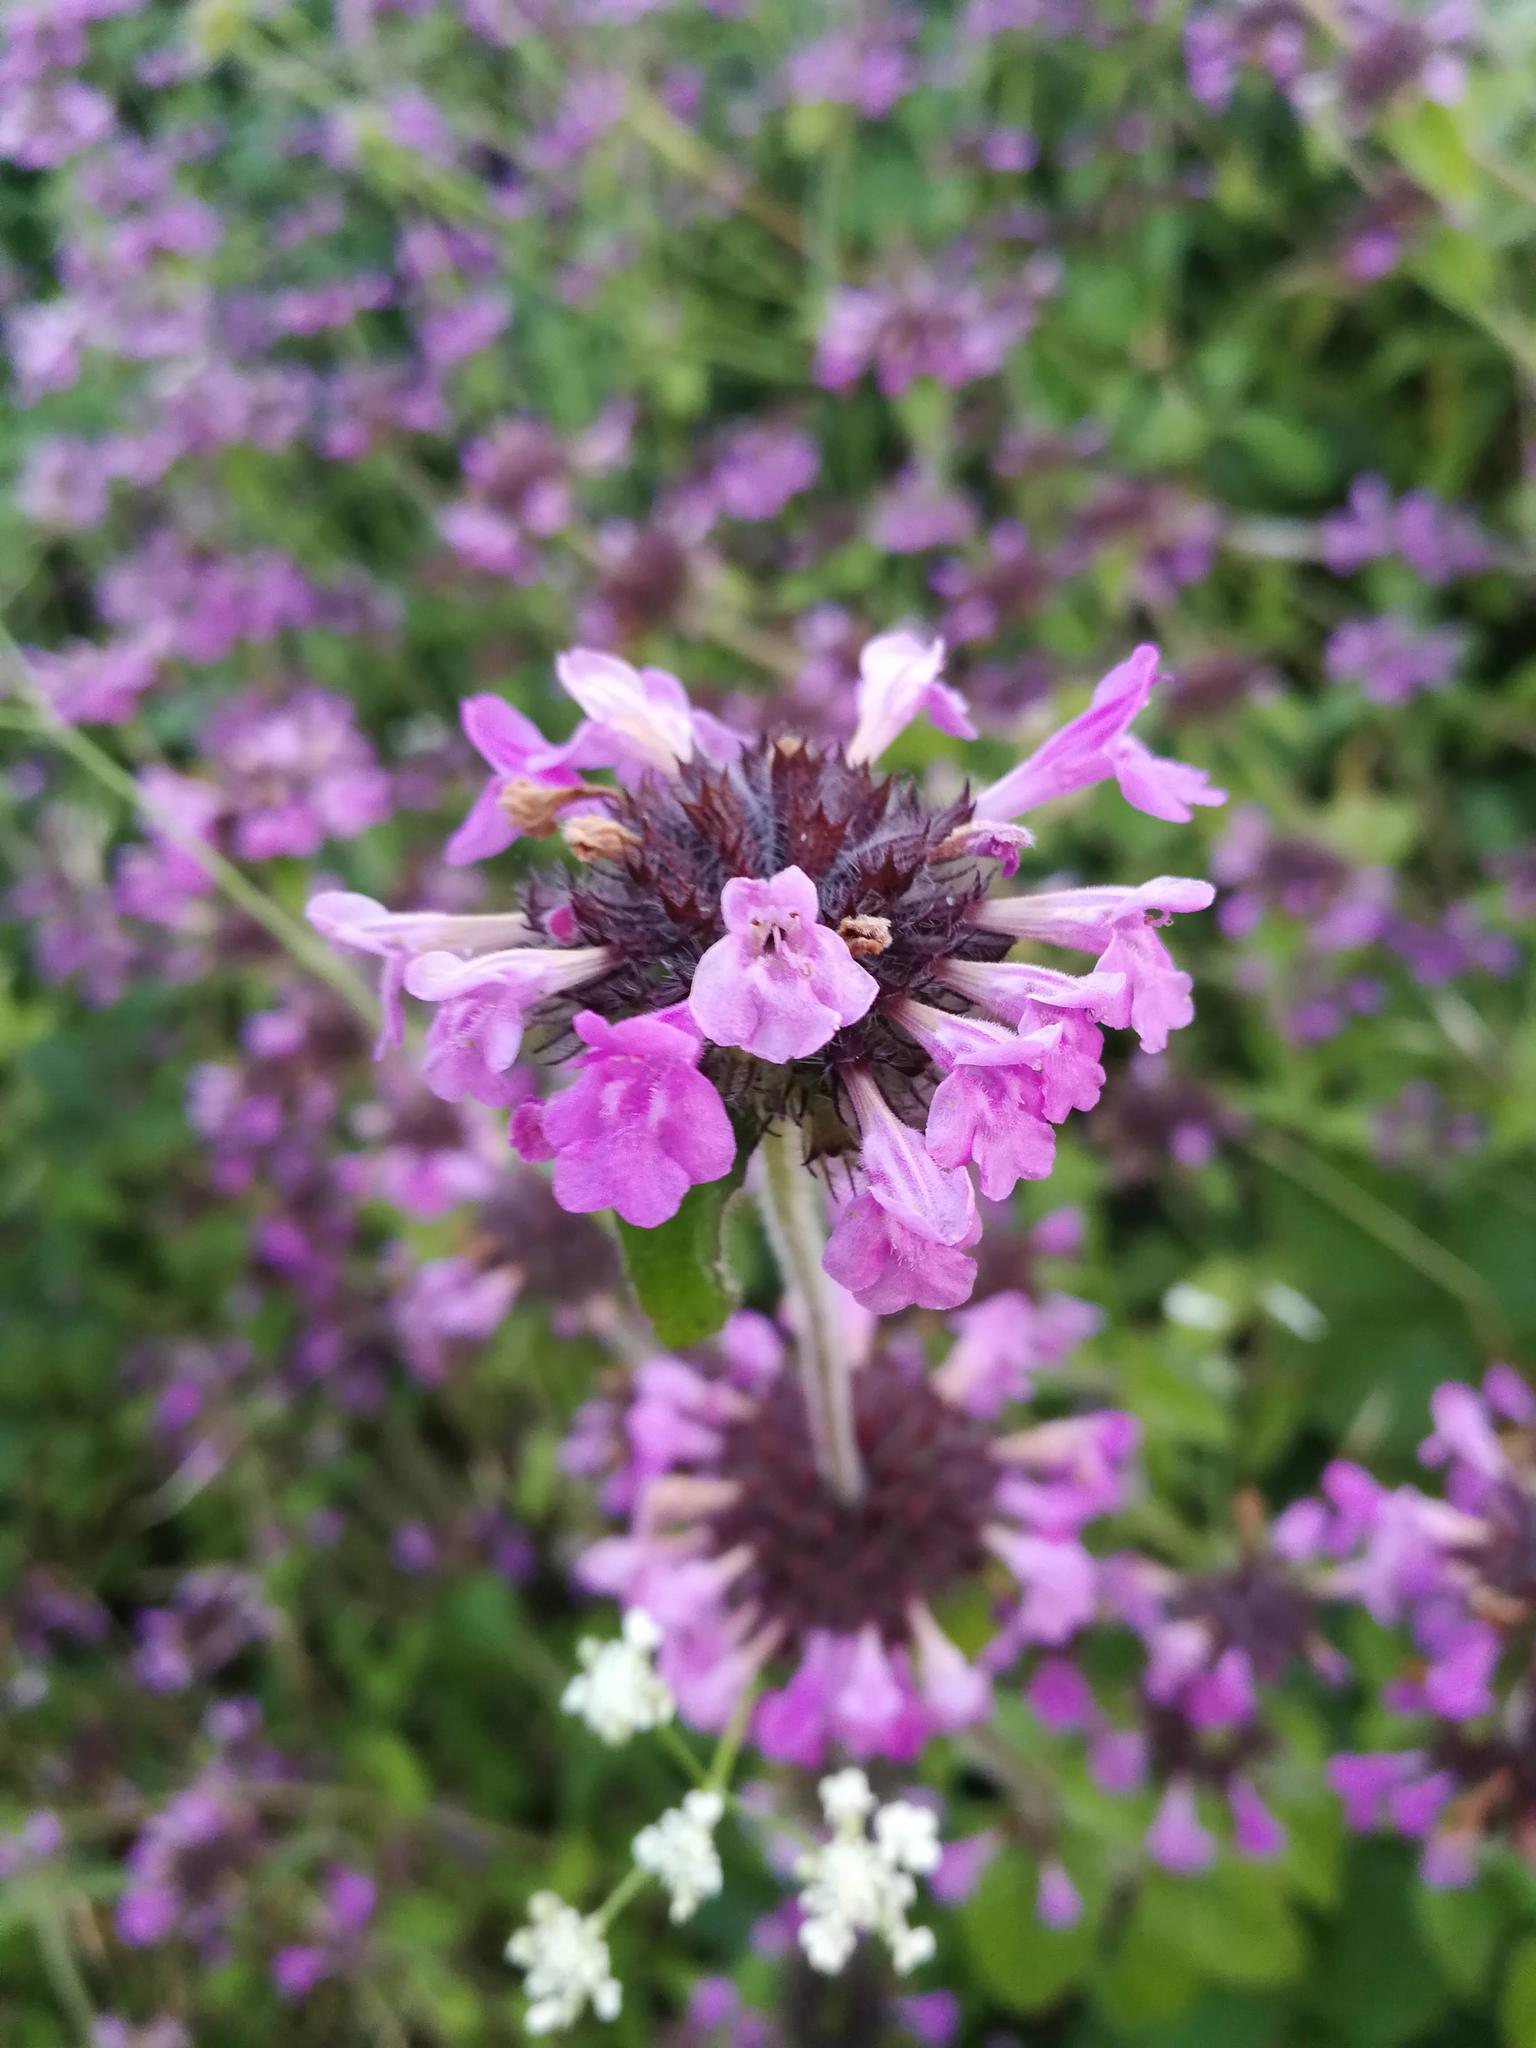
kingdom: Plantae
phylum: Tracheophyta
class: Magnoliopsida
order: Lamiales
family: Lamiaceae
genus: Clinopodium
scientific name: Clinopodium vulgare
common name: Wild basil
